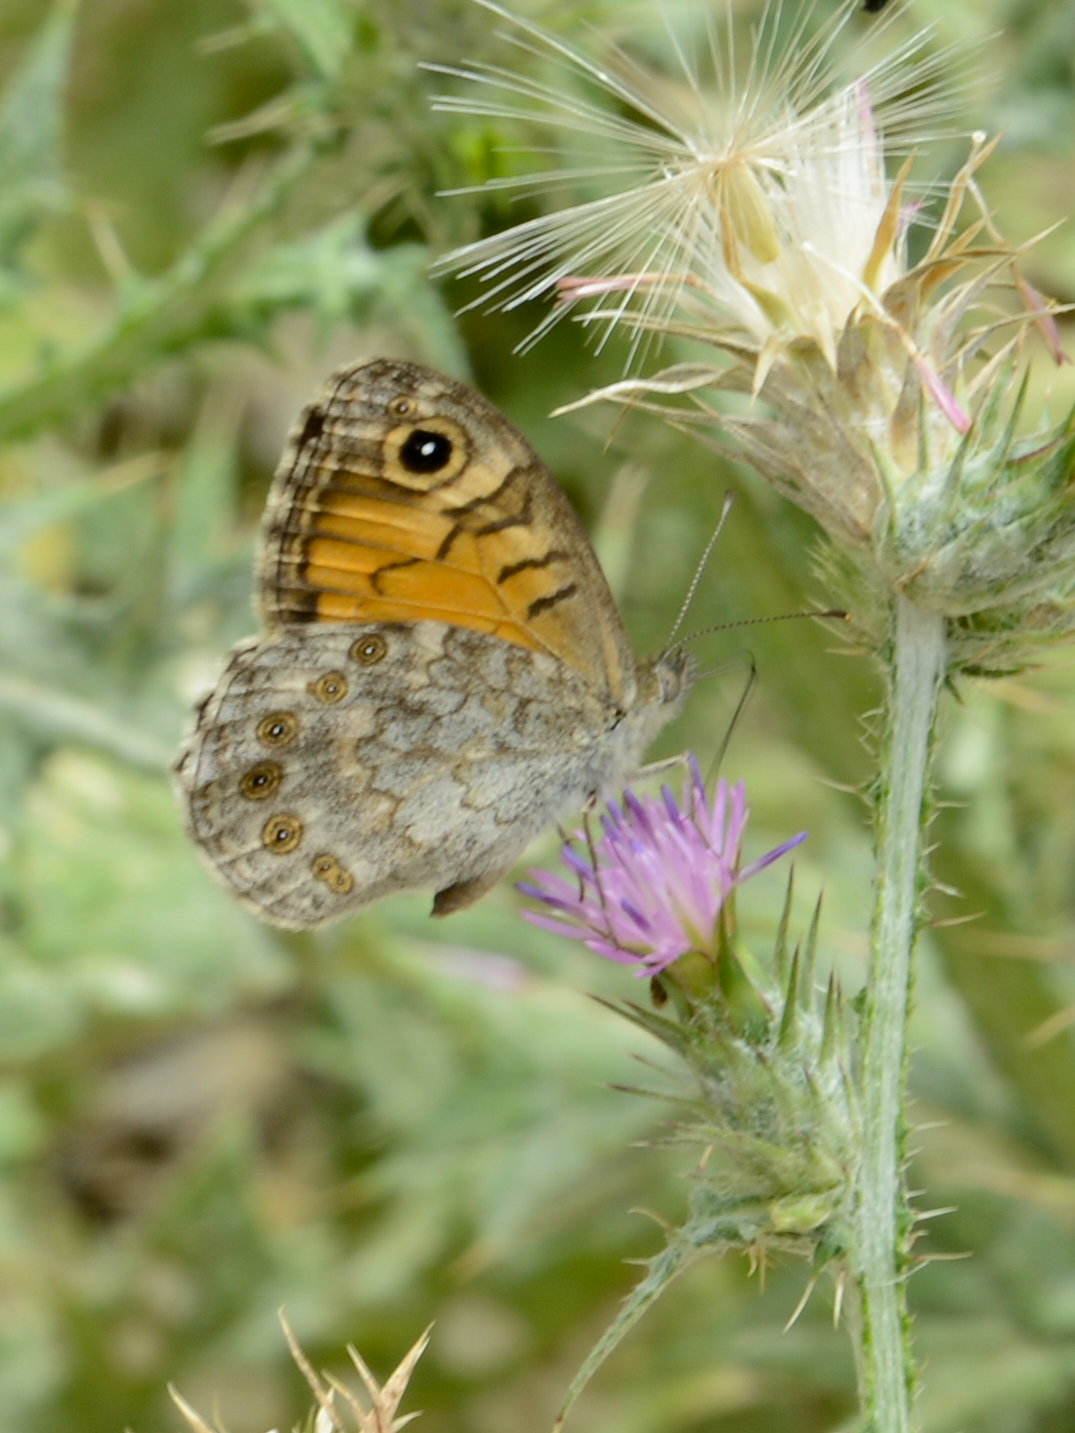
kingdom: Animalia
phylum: Arthropoda
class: Insecta
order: Lepidoptera
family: Nymphalidae
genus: Pararge
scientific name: Pararge Lasiommata megera
